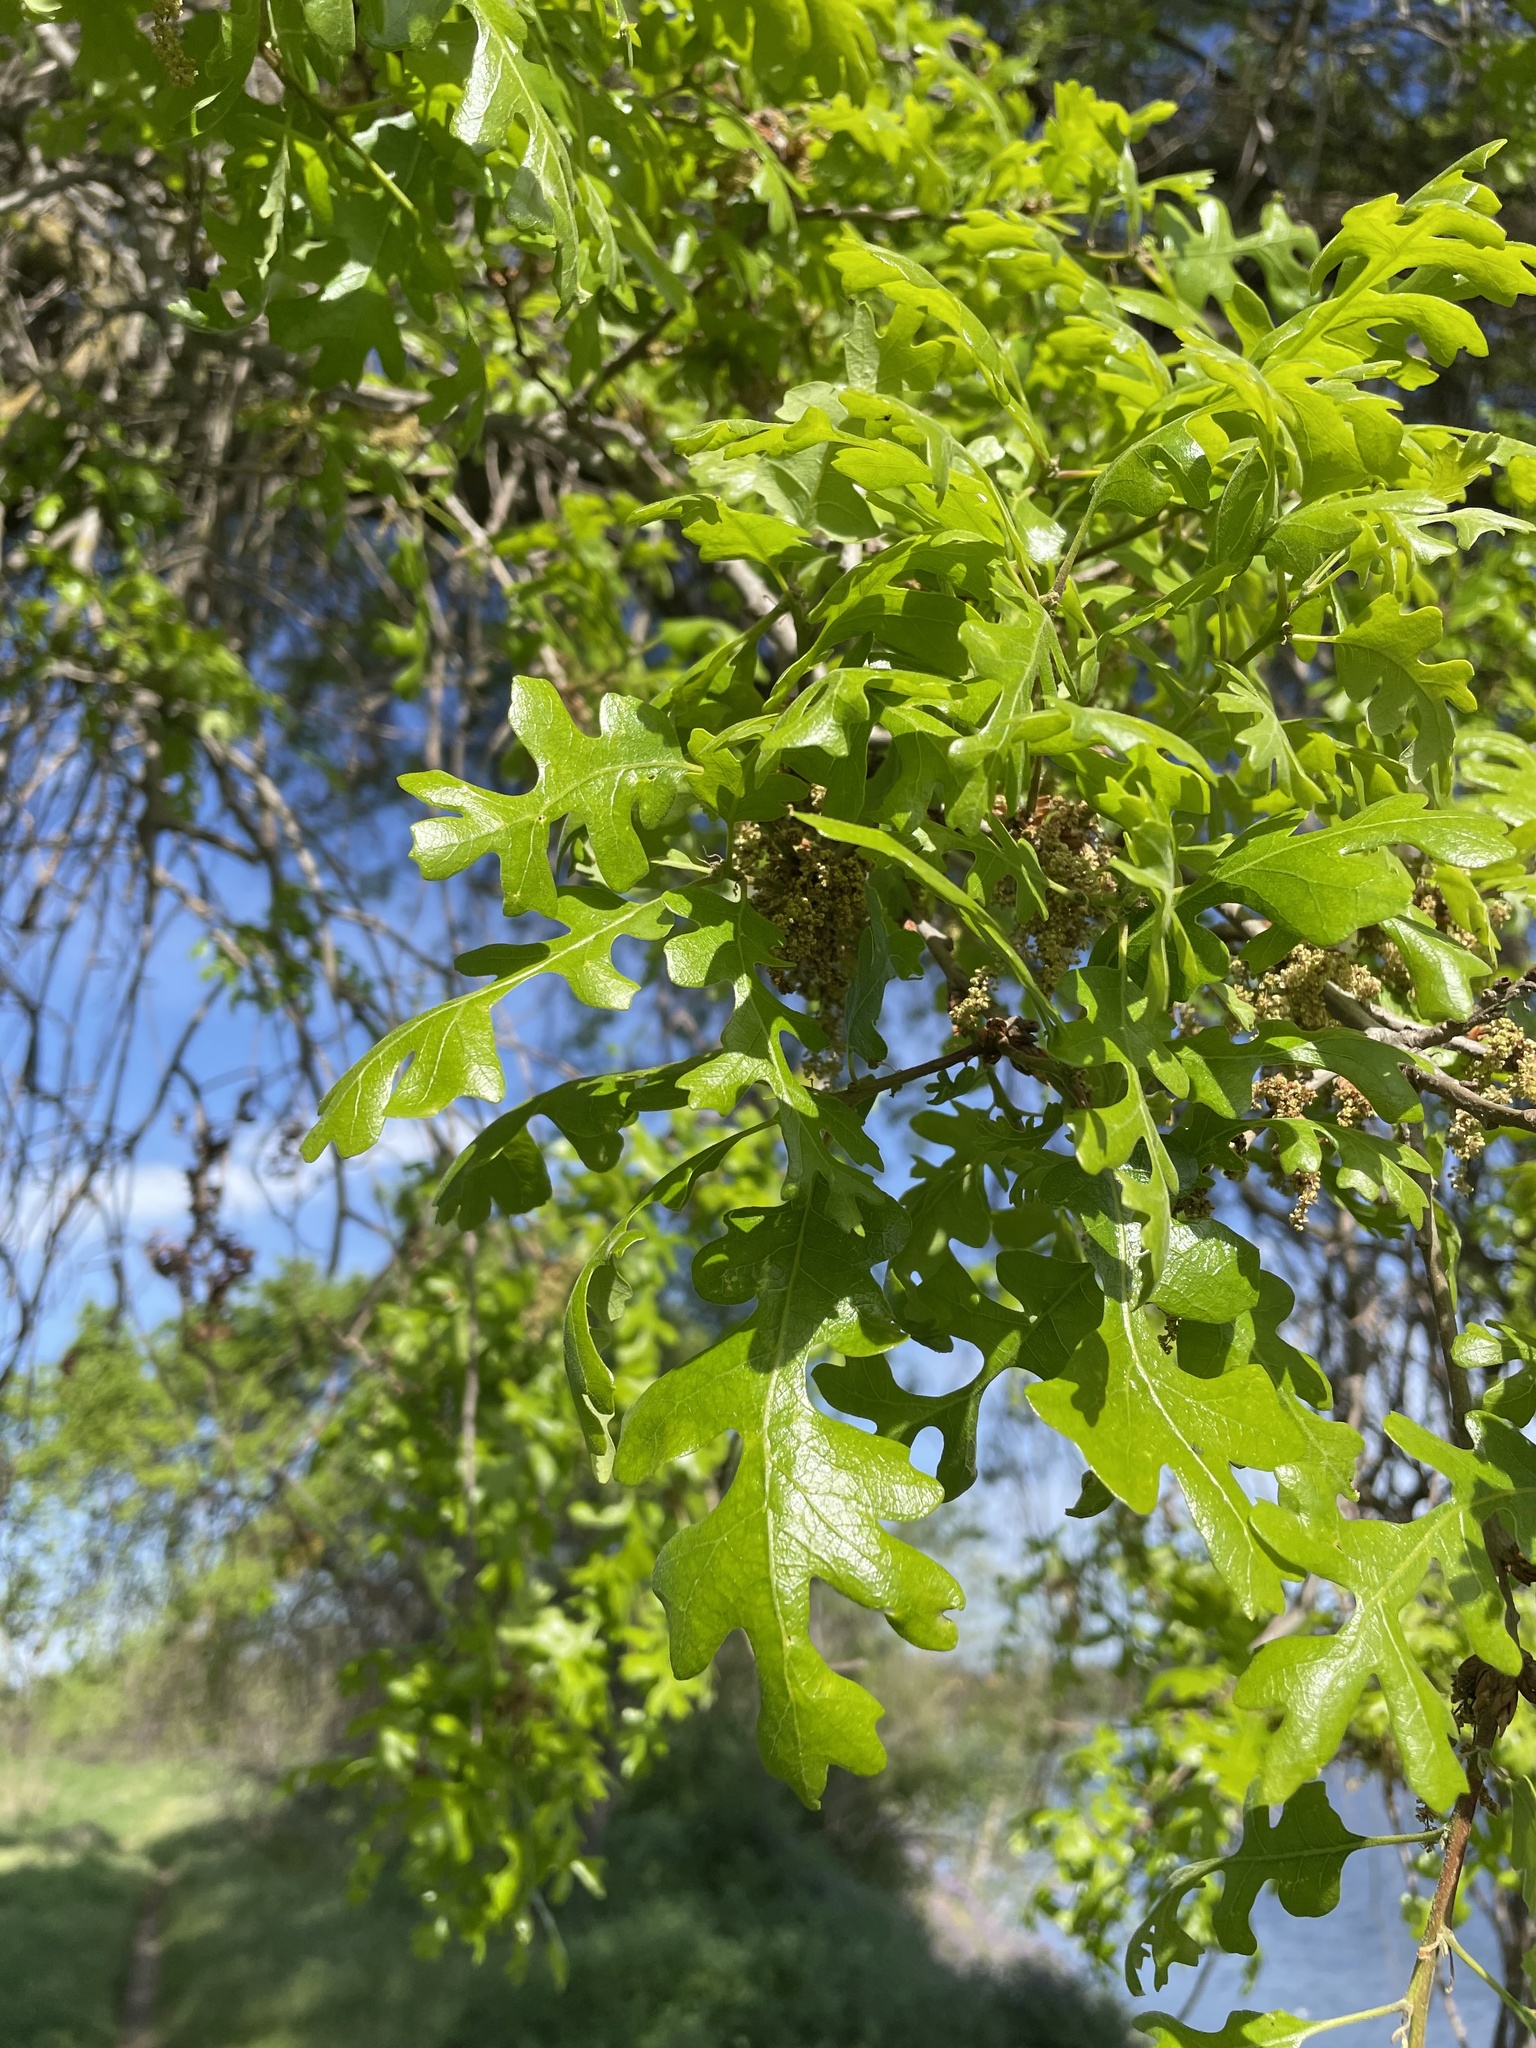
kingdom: Plantae
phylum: Tracheophyta
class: Magnoliopsida
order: Fagales
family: Fagaceae
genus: Quercus
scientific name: Quercus lobata
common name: Valley oak
